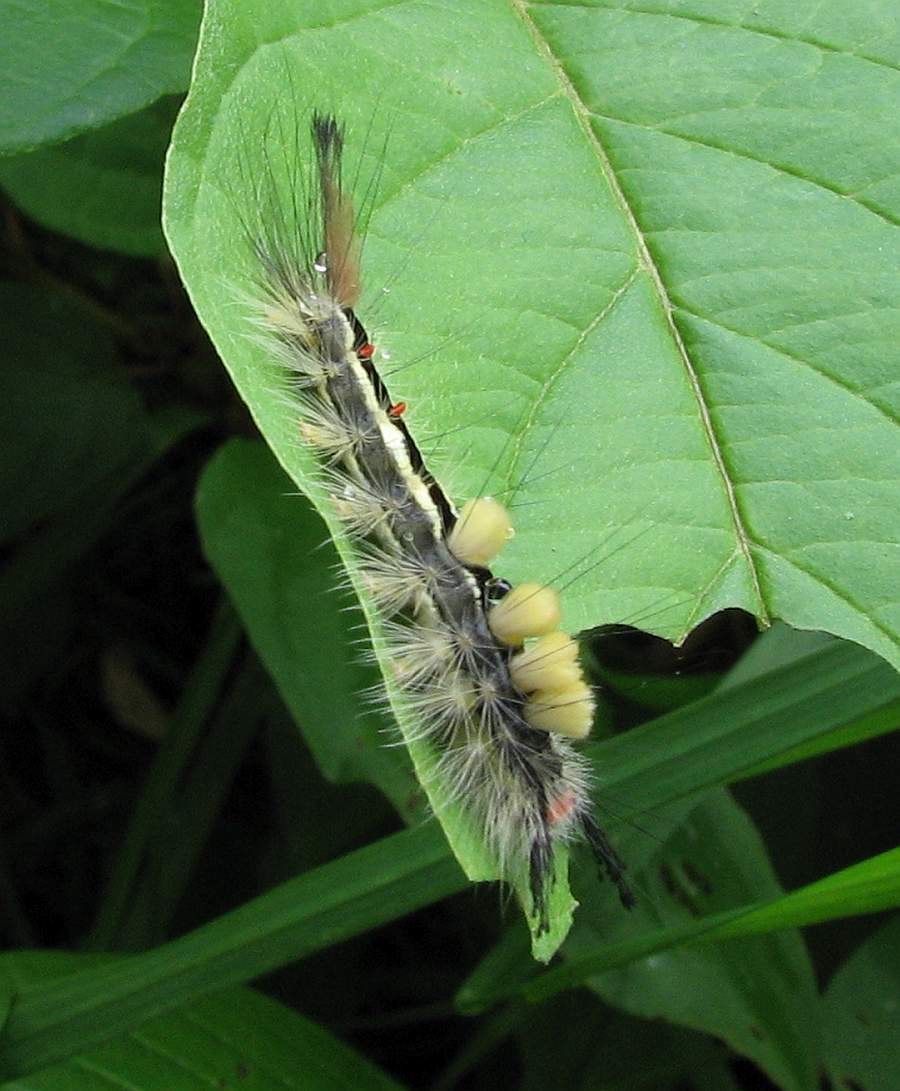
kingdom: Animalia
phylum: Arthropoda
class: Insecta
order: Lepidoptera
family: Erebidae
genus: Orgyia
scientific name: Orgyia leucostigma
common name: White-marked tussock moth
